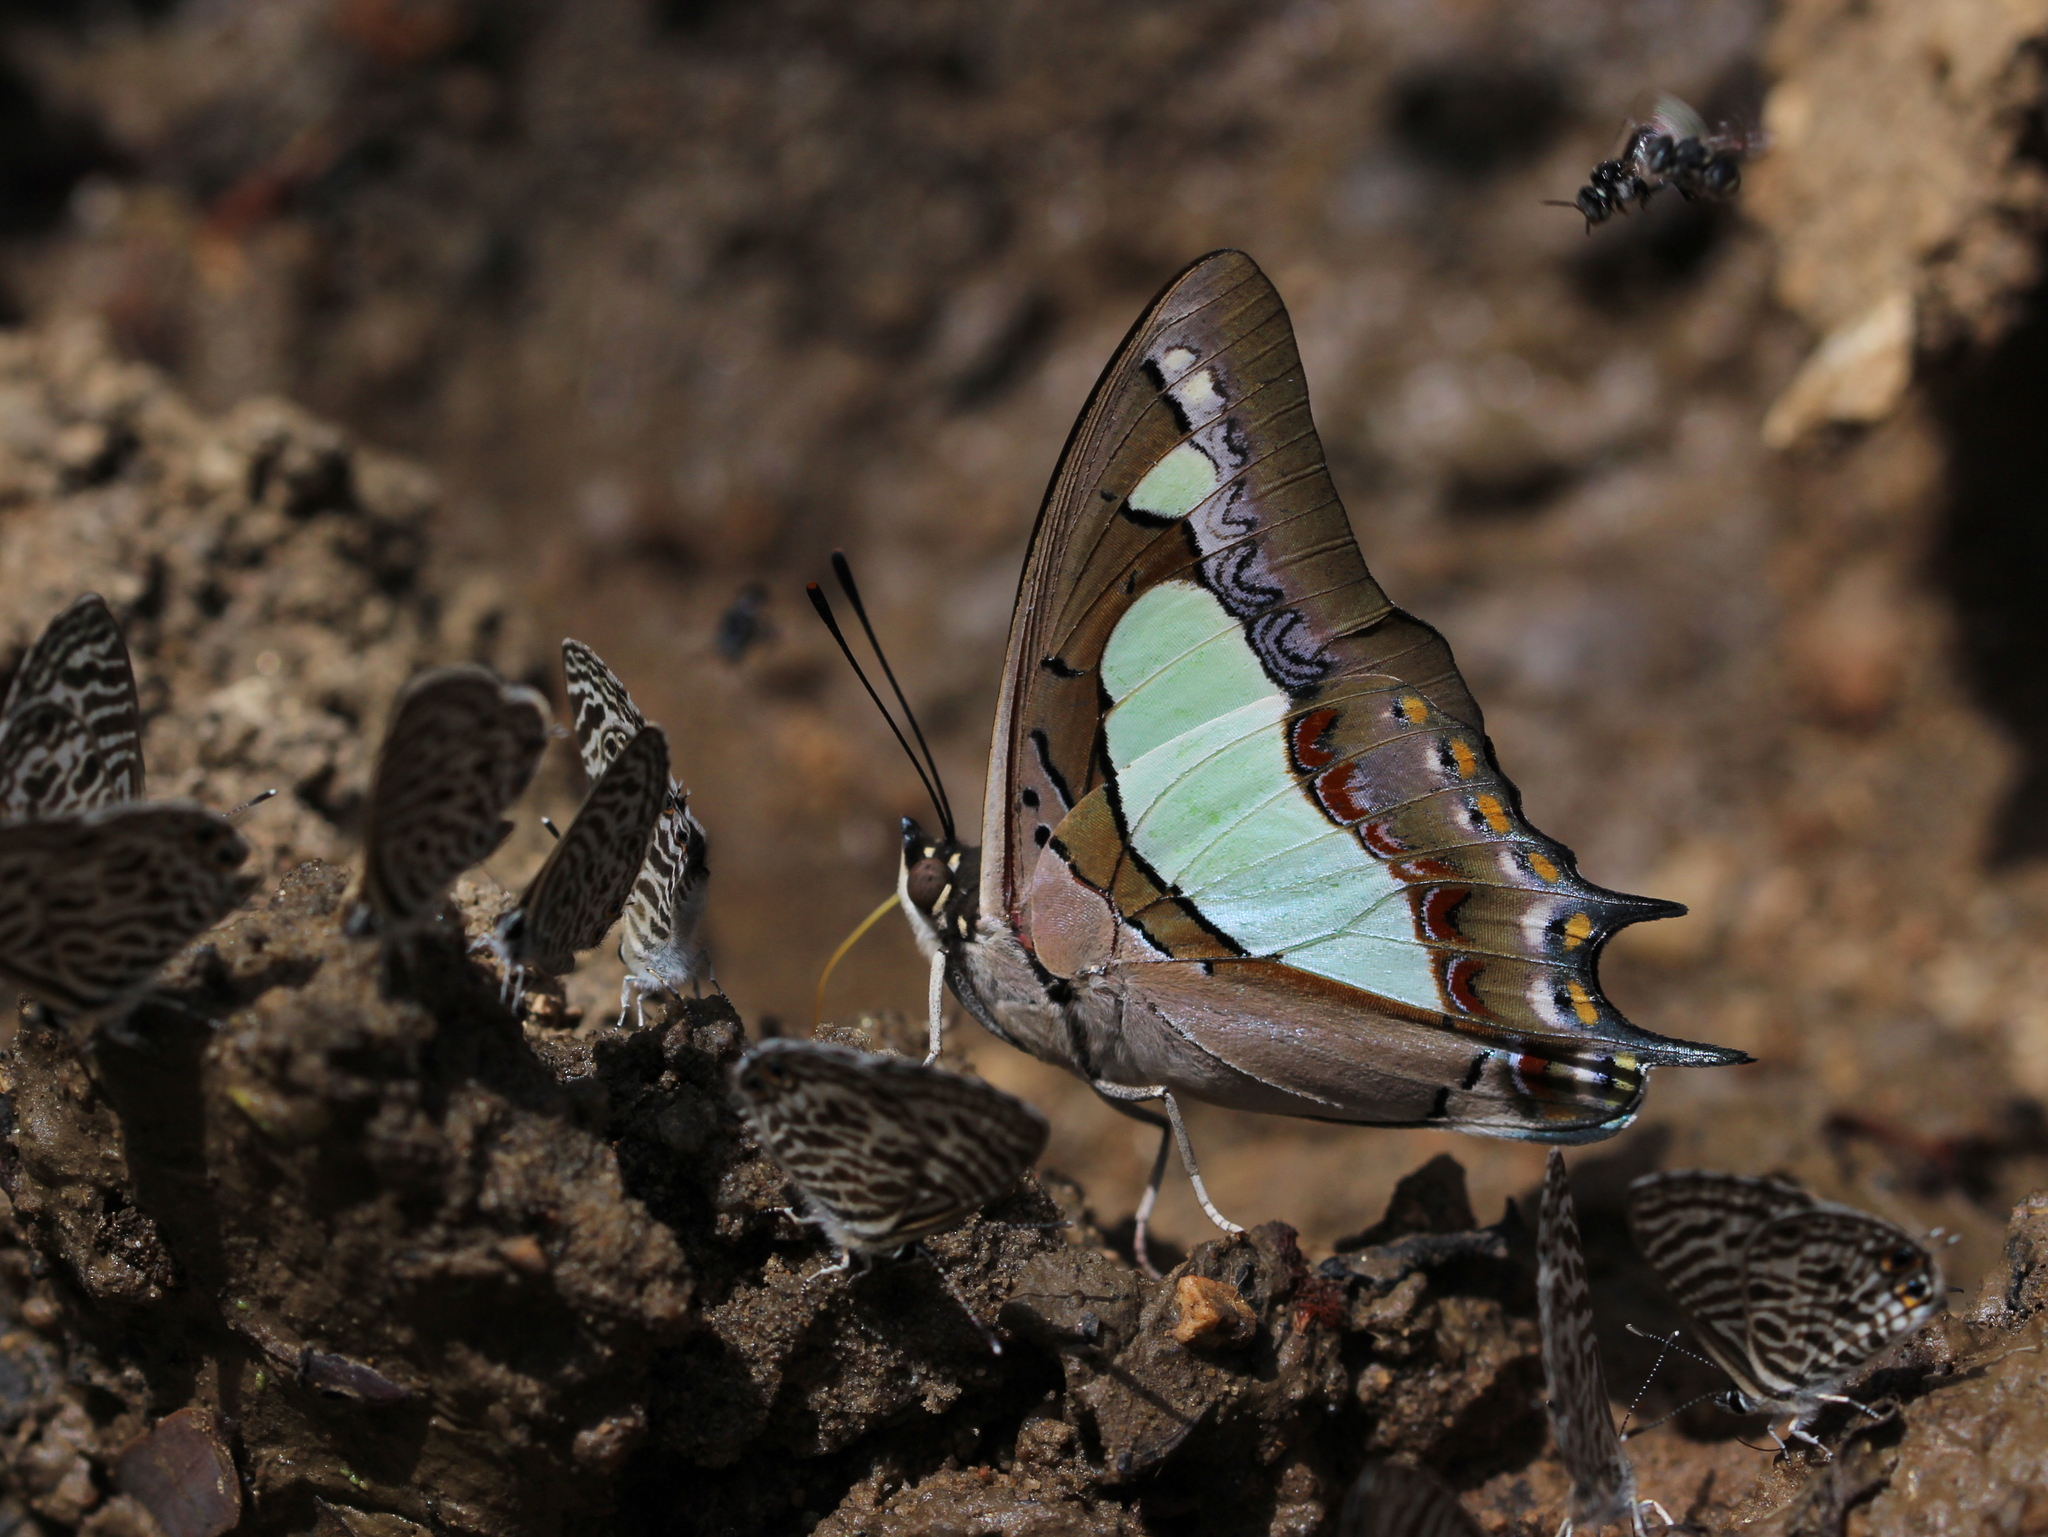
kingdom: Animalia
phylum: Arthropoda
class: Insecta
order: Lepidoptera
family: Nymphalidae
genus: Polyura
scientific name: Polyura agrarius
